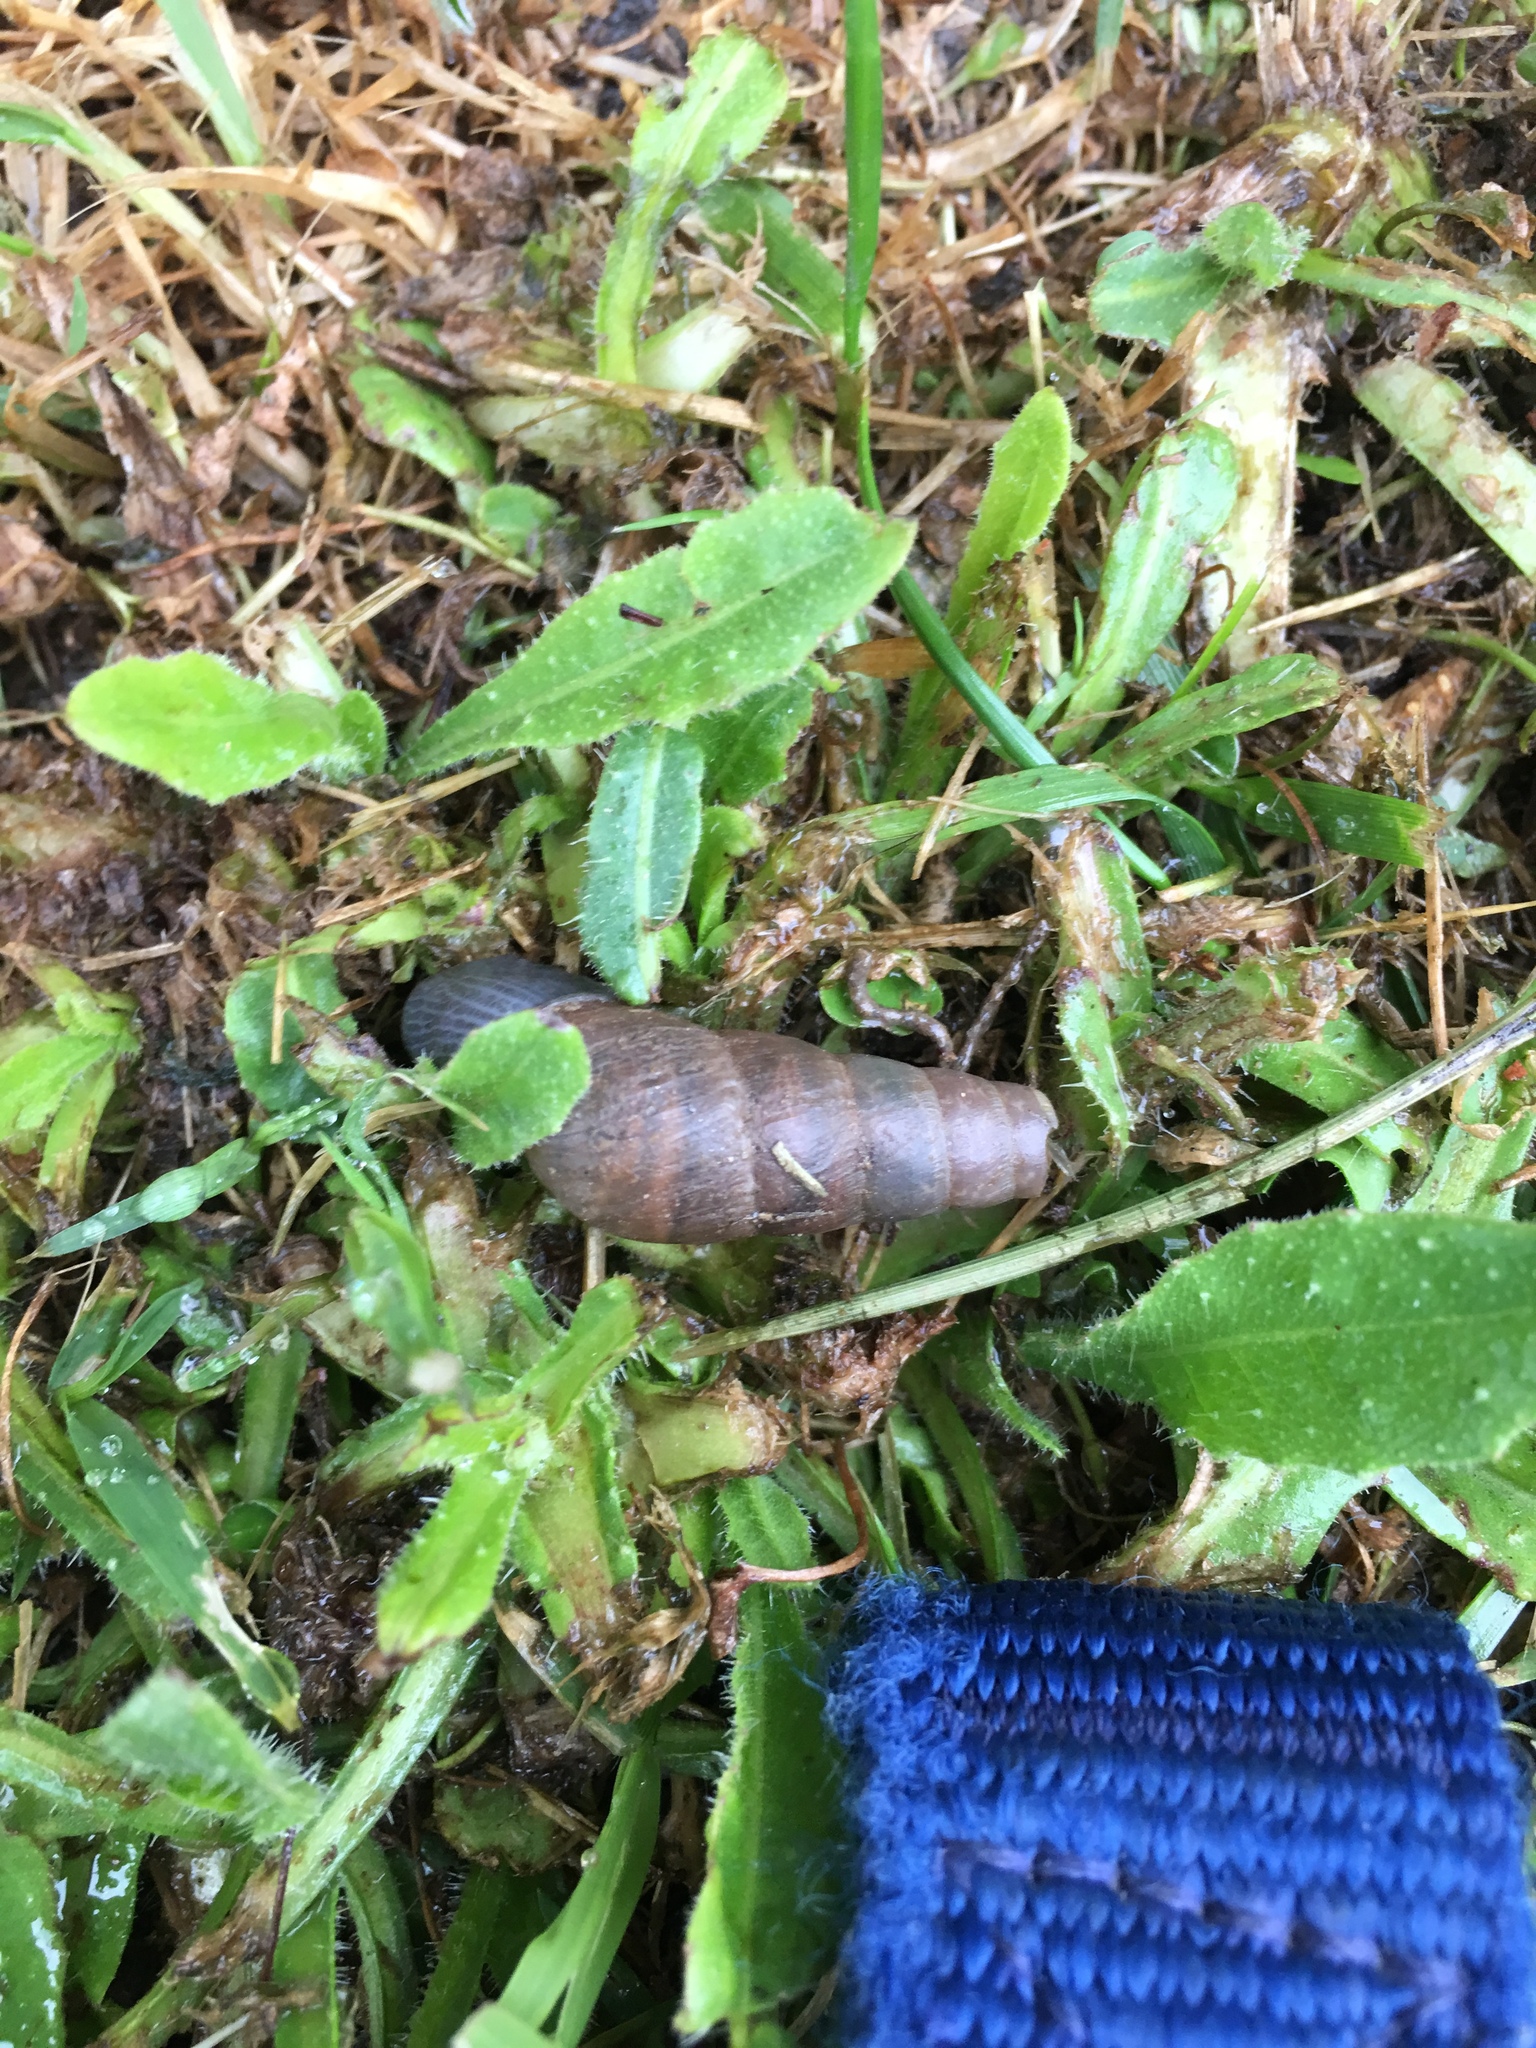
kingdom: Animalia
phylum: Mollusca
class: Gastropoda
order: Stylommatophora
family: Achatinidae
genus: Rumina
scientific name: Rumina decollata
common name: Decollate snail
